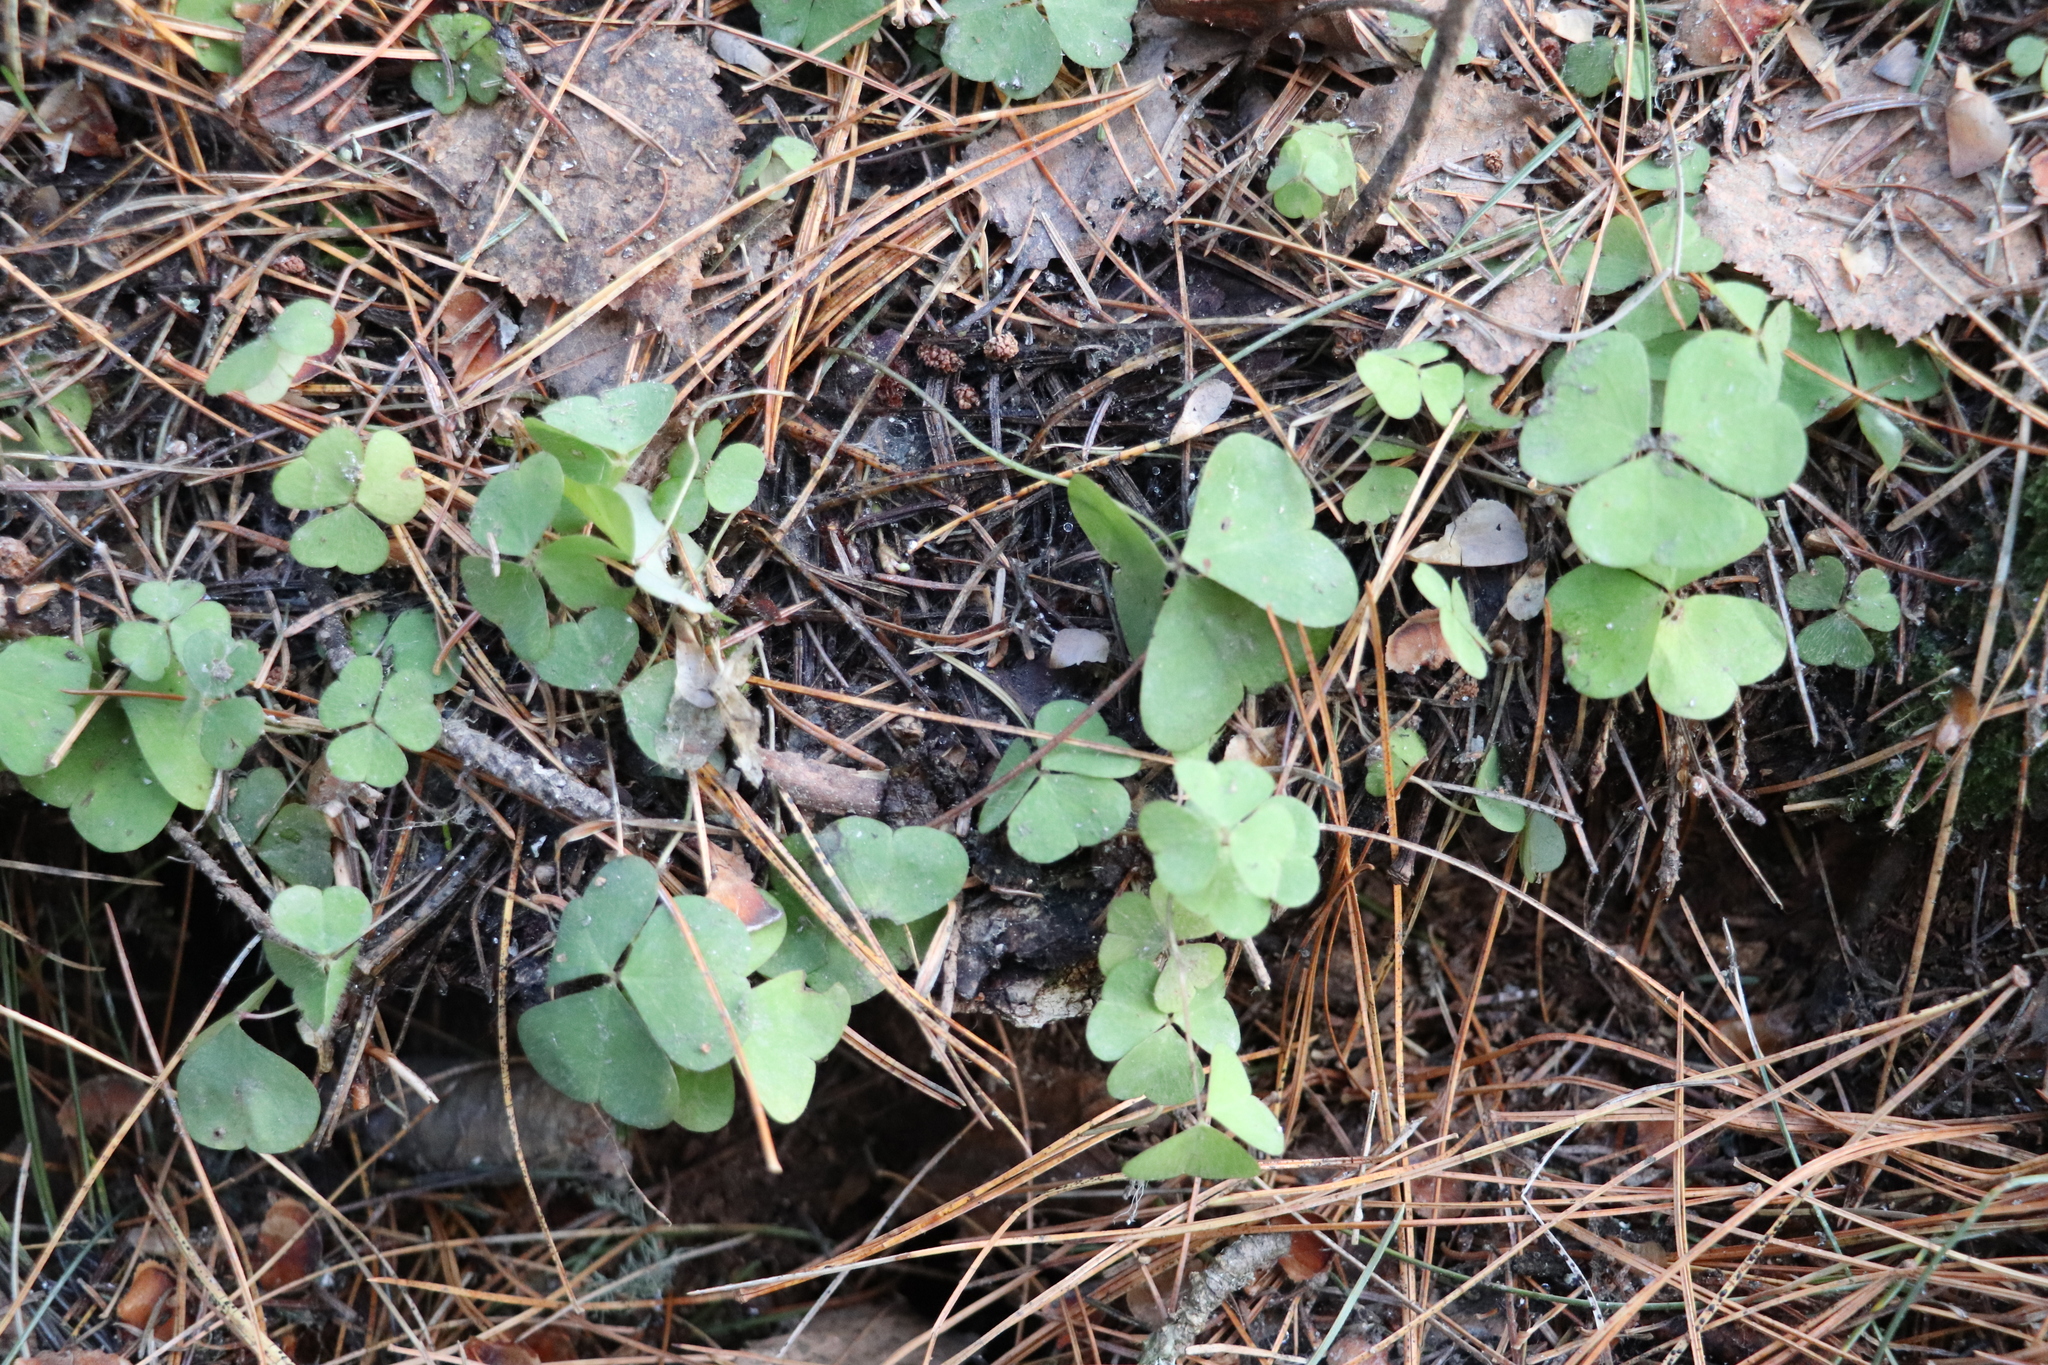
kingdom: Plantae
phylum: Tracheophyta
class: Magnoliopsida
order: Oxalidales
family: Oxalidaceae
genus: Oxalis
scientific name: Oxalis acetosella
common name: Wood-sorrel
